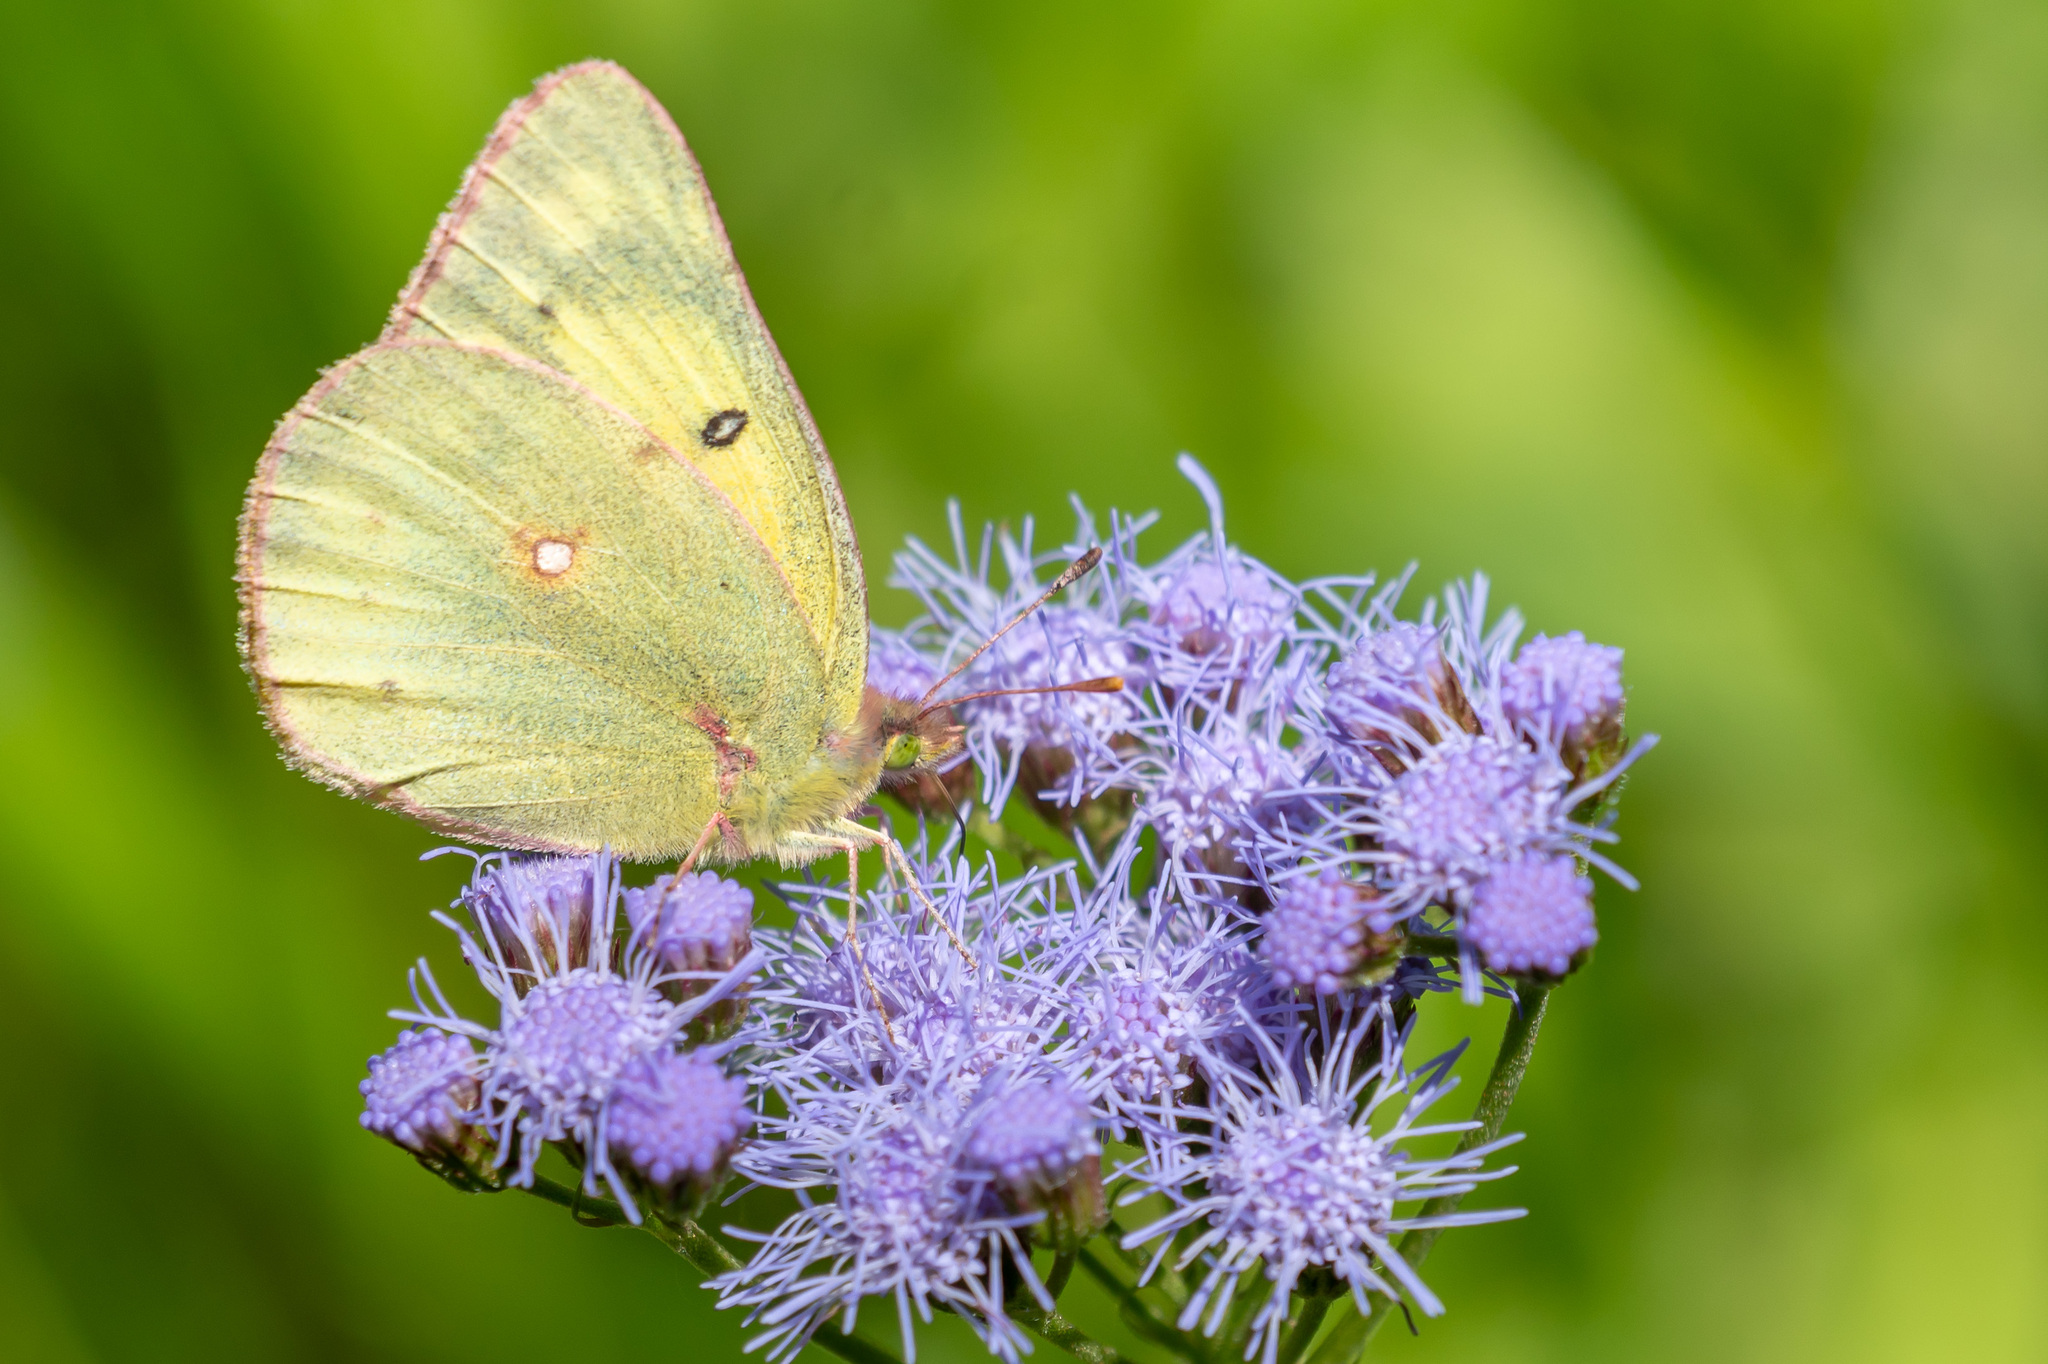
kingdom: Animalia
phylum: Arthropoda
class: Insecta
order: Lepidoptera
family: Pieridae
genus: Colias
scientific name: Colias eurytheme
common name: Alfalfa butterfly
